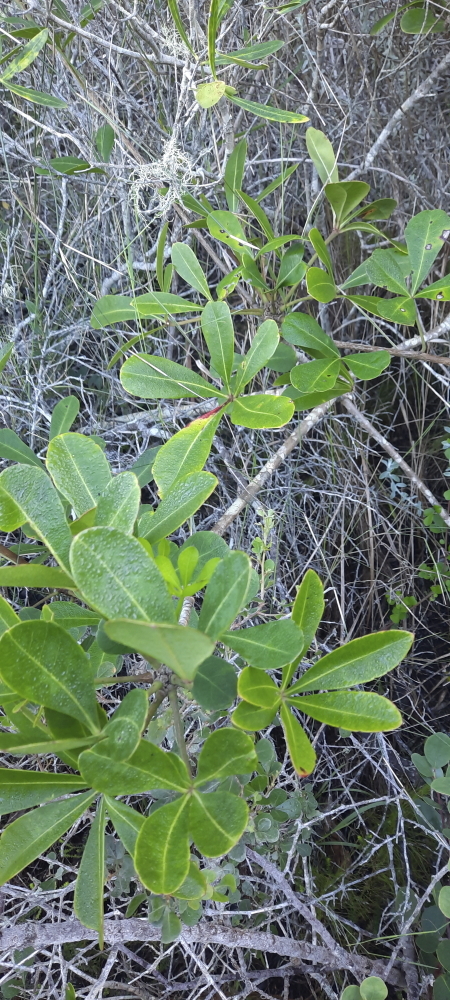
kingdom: Plantae
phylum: Tracheophyta
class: Magnoliopsida
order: Apiales
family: Araliaceae
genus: Cussonia
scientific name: Cussonia thyrsiflora
